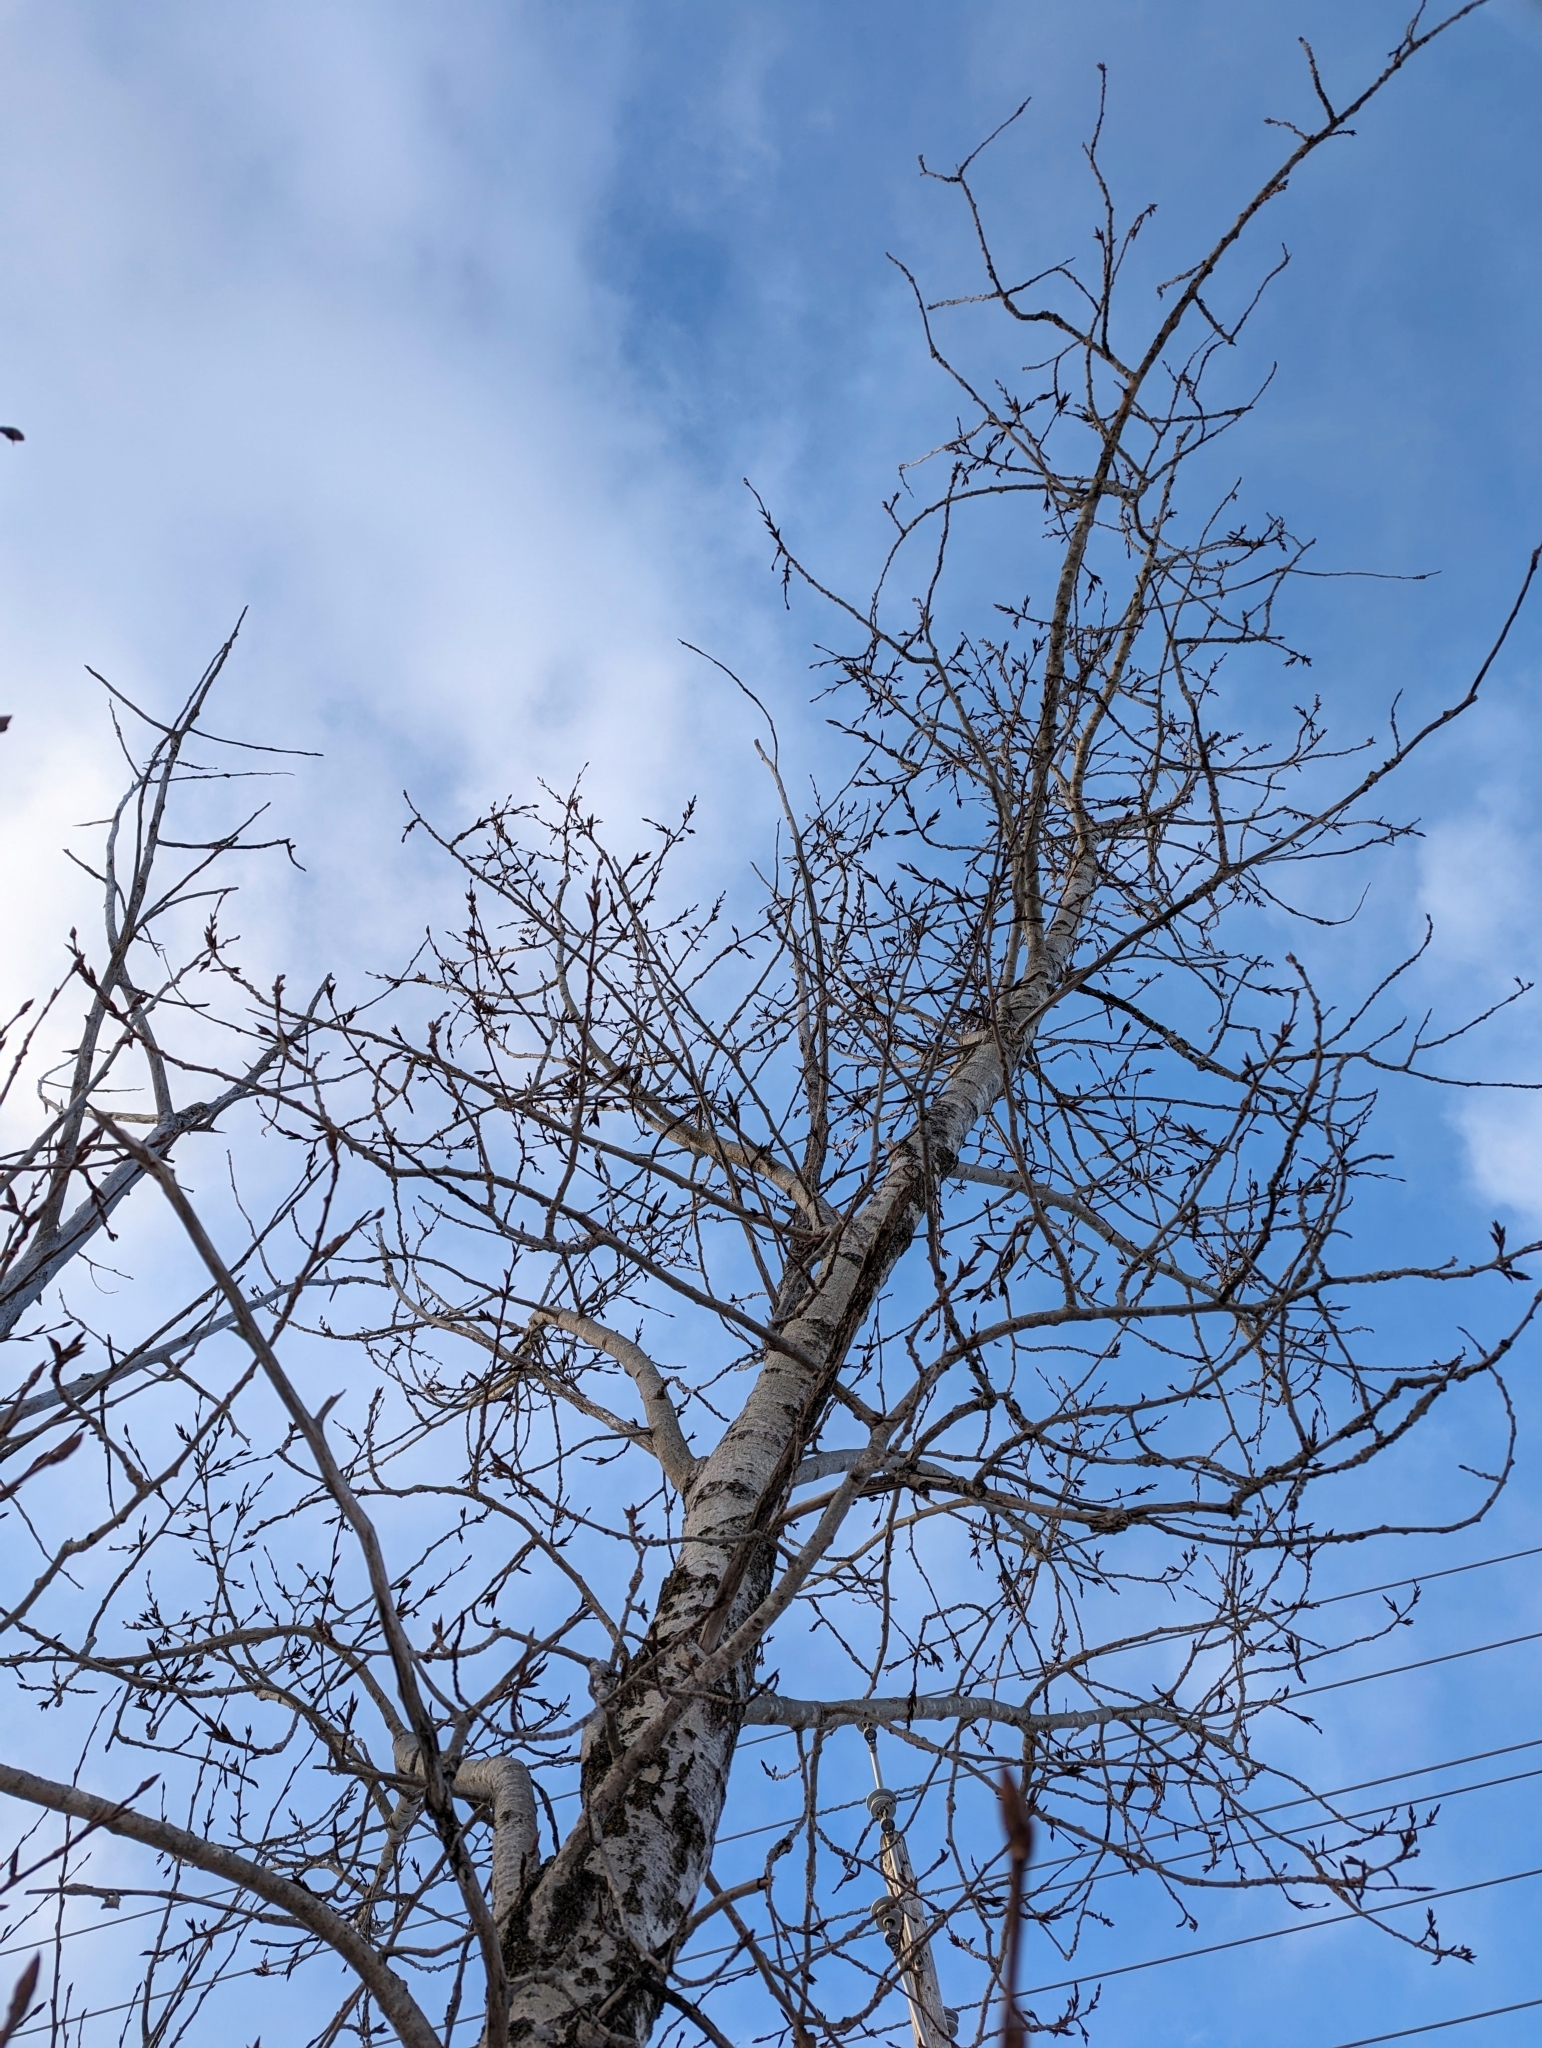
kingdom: Plantae
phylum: Tracheophyta
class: Magnoliopsida
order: Malpighiales
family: Salicaceae
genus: Populus
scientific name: Populus balsamifera
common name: Balsam poplar
